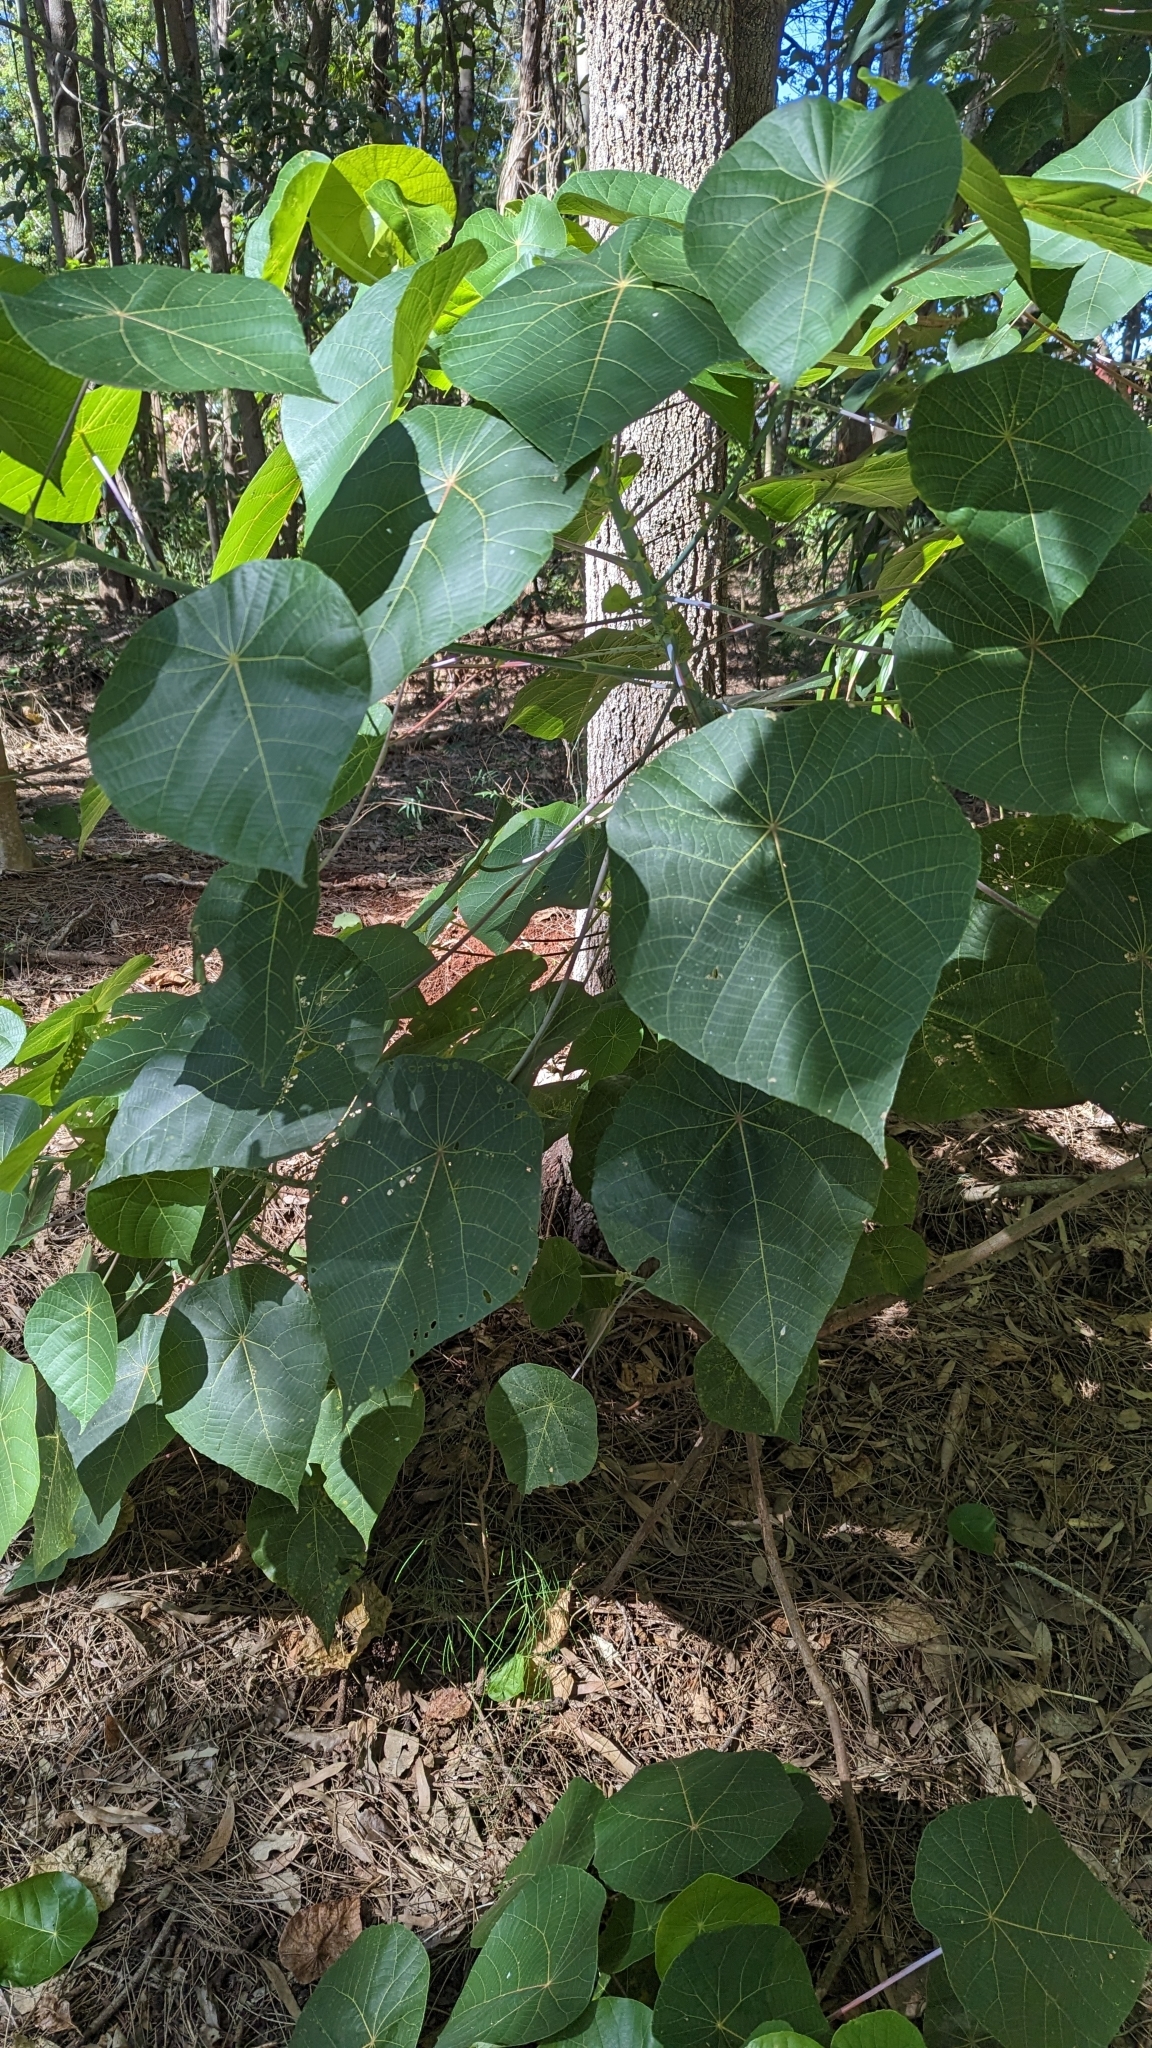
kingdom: Plantae
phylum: Tracheophyta
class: Magnoliopsida
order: Malpighiales
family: Euphorbiaceae
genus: Macaranga
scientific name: Macaranga tanarius
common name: Parasol leaf tree
